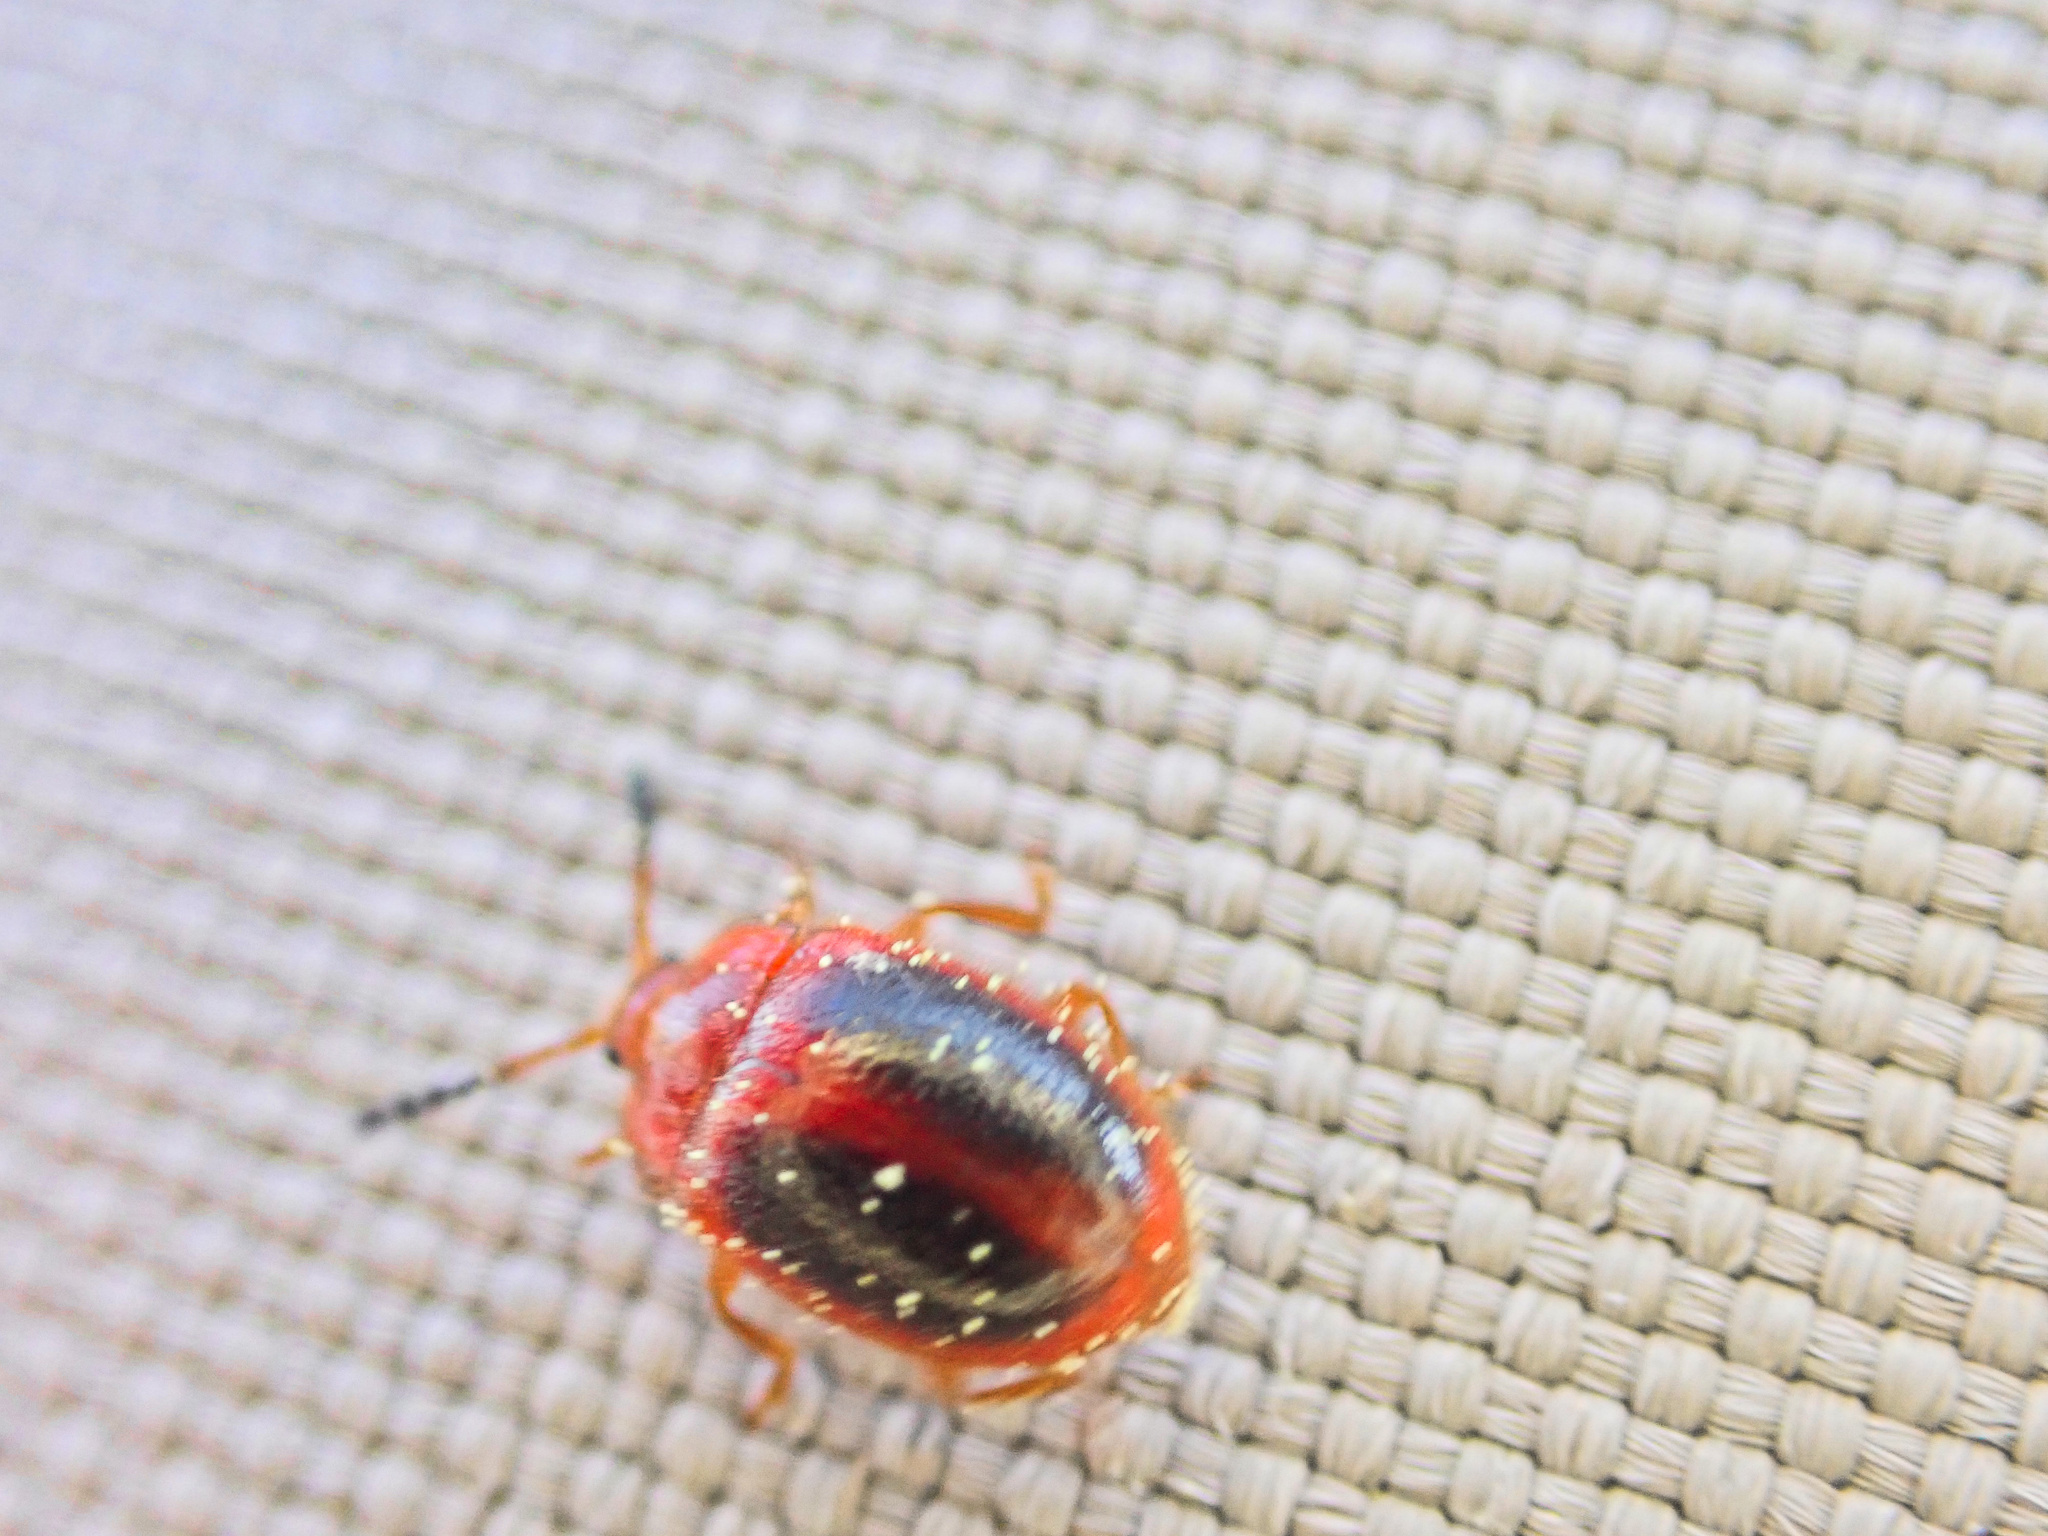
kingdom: Animalia
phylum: Arthropoda
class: Insecta
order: Coleoptera
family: Endomychidae
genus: Stenotarsus
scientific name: Stenotarsus hispidus
